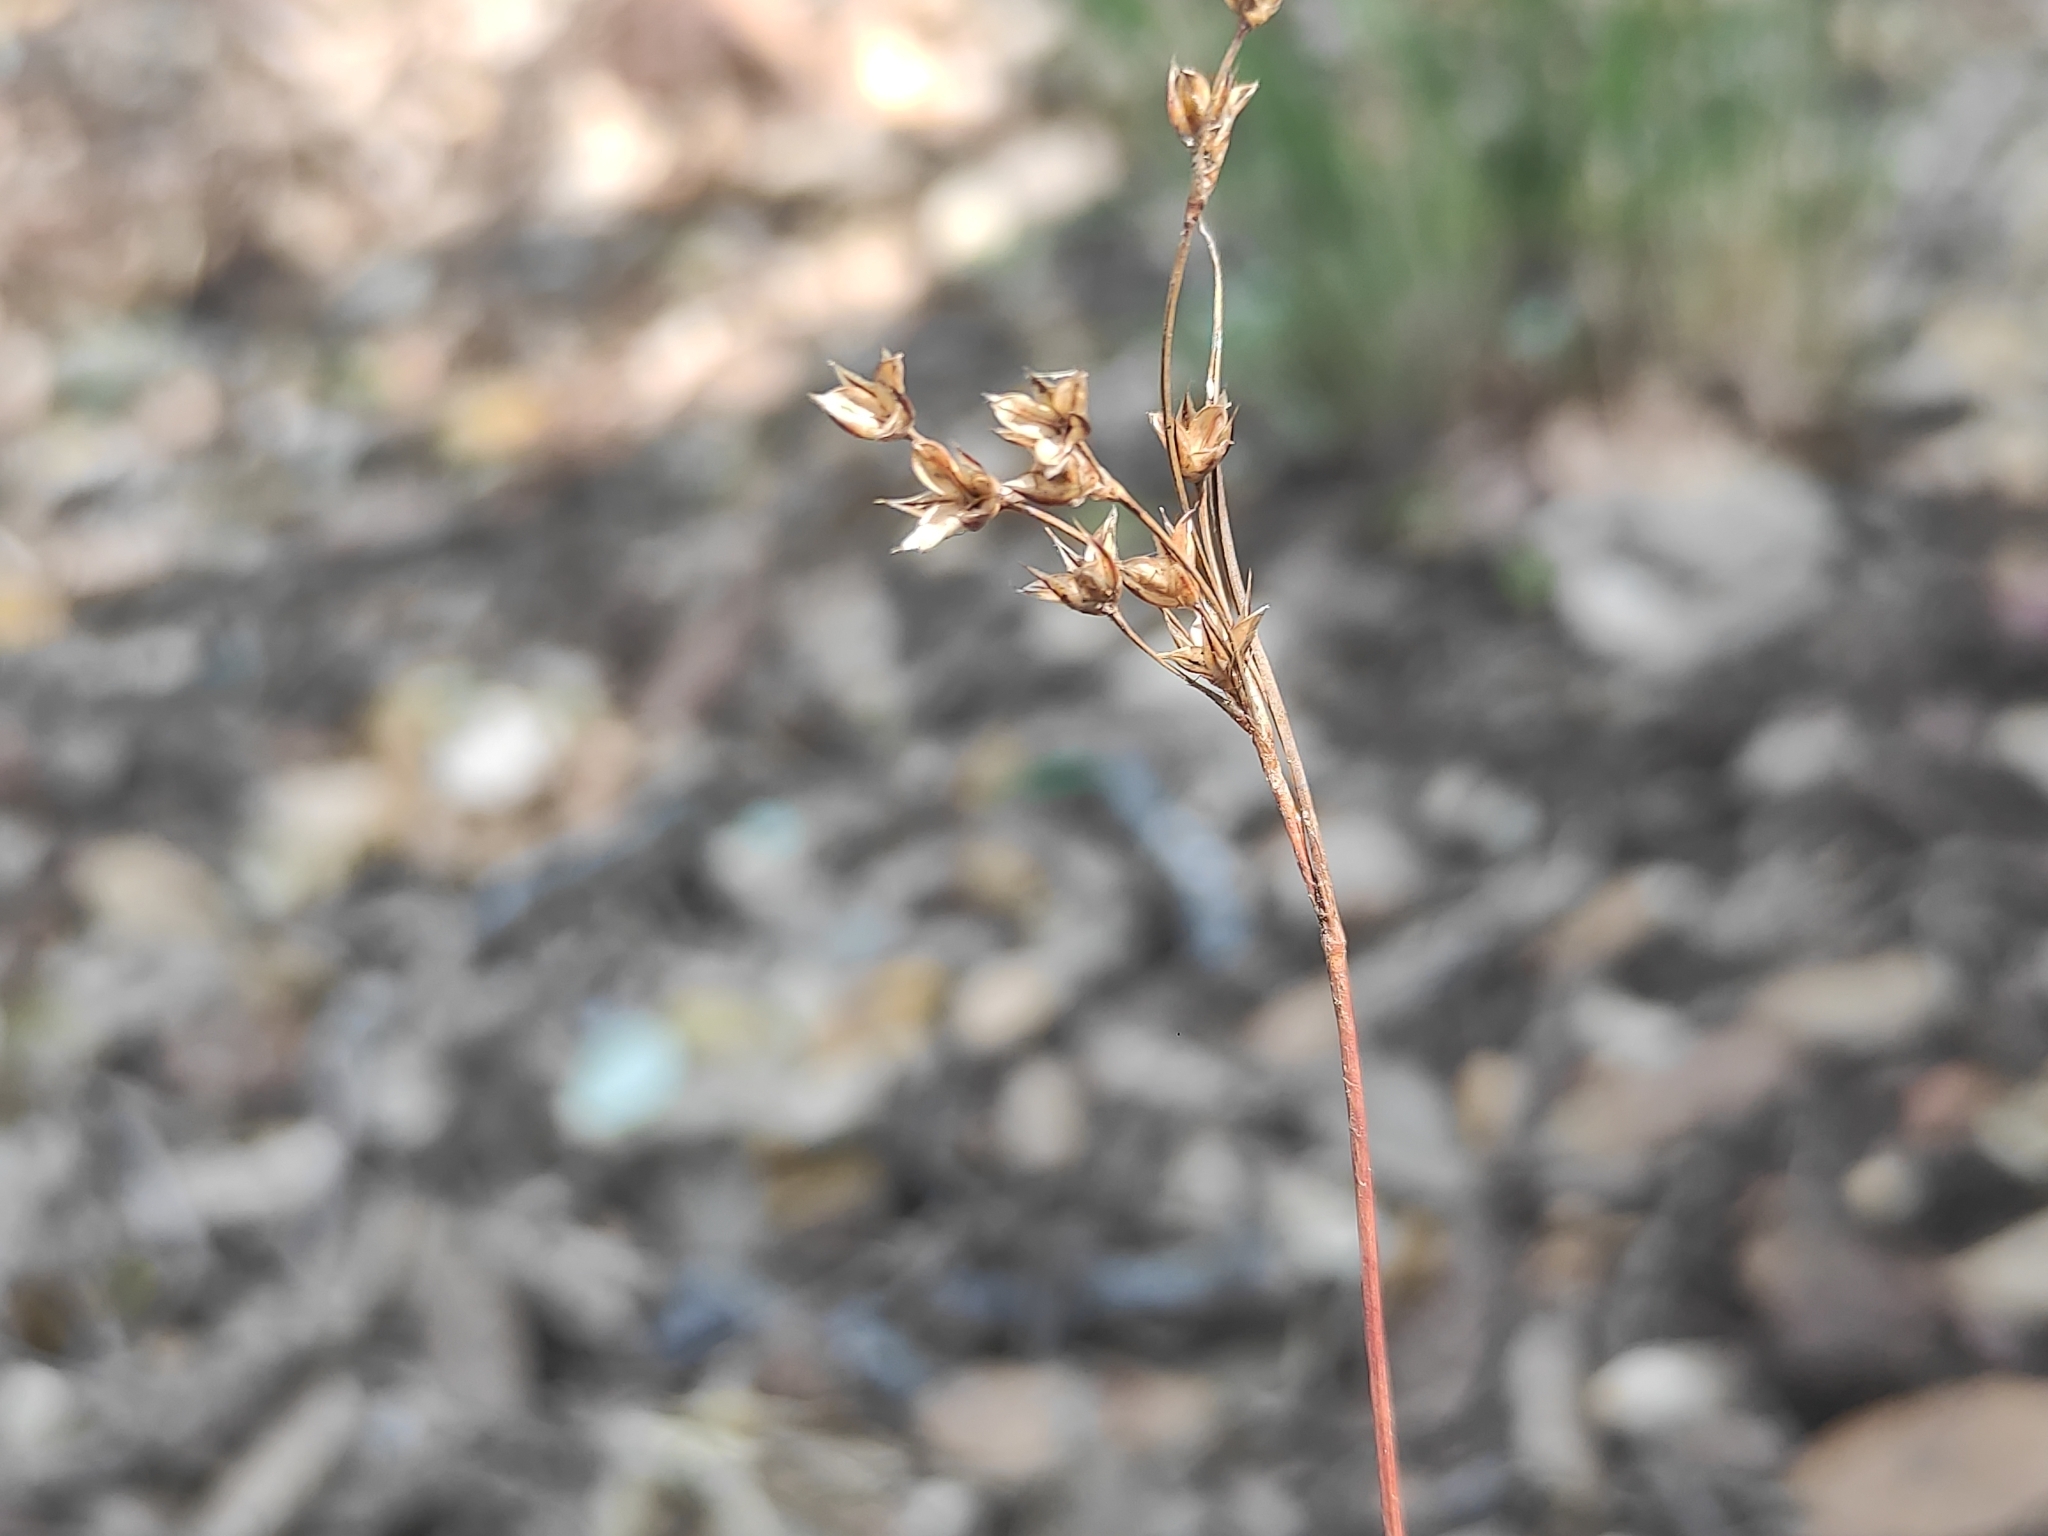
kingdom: Plantae
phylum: Tracheophyta
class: Liliopsida
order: Poales
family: Juncaceae
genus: Luzula
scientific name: Luzula forsteri
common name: Southern wood-rush
